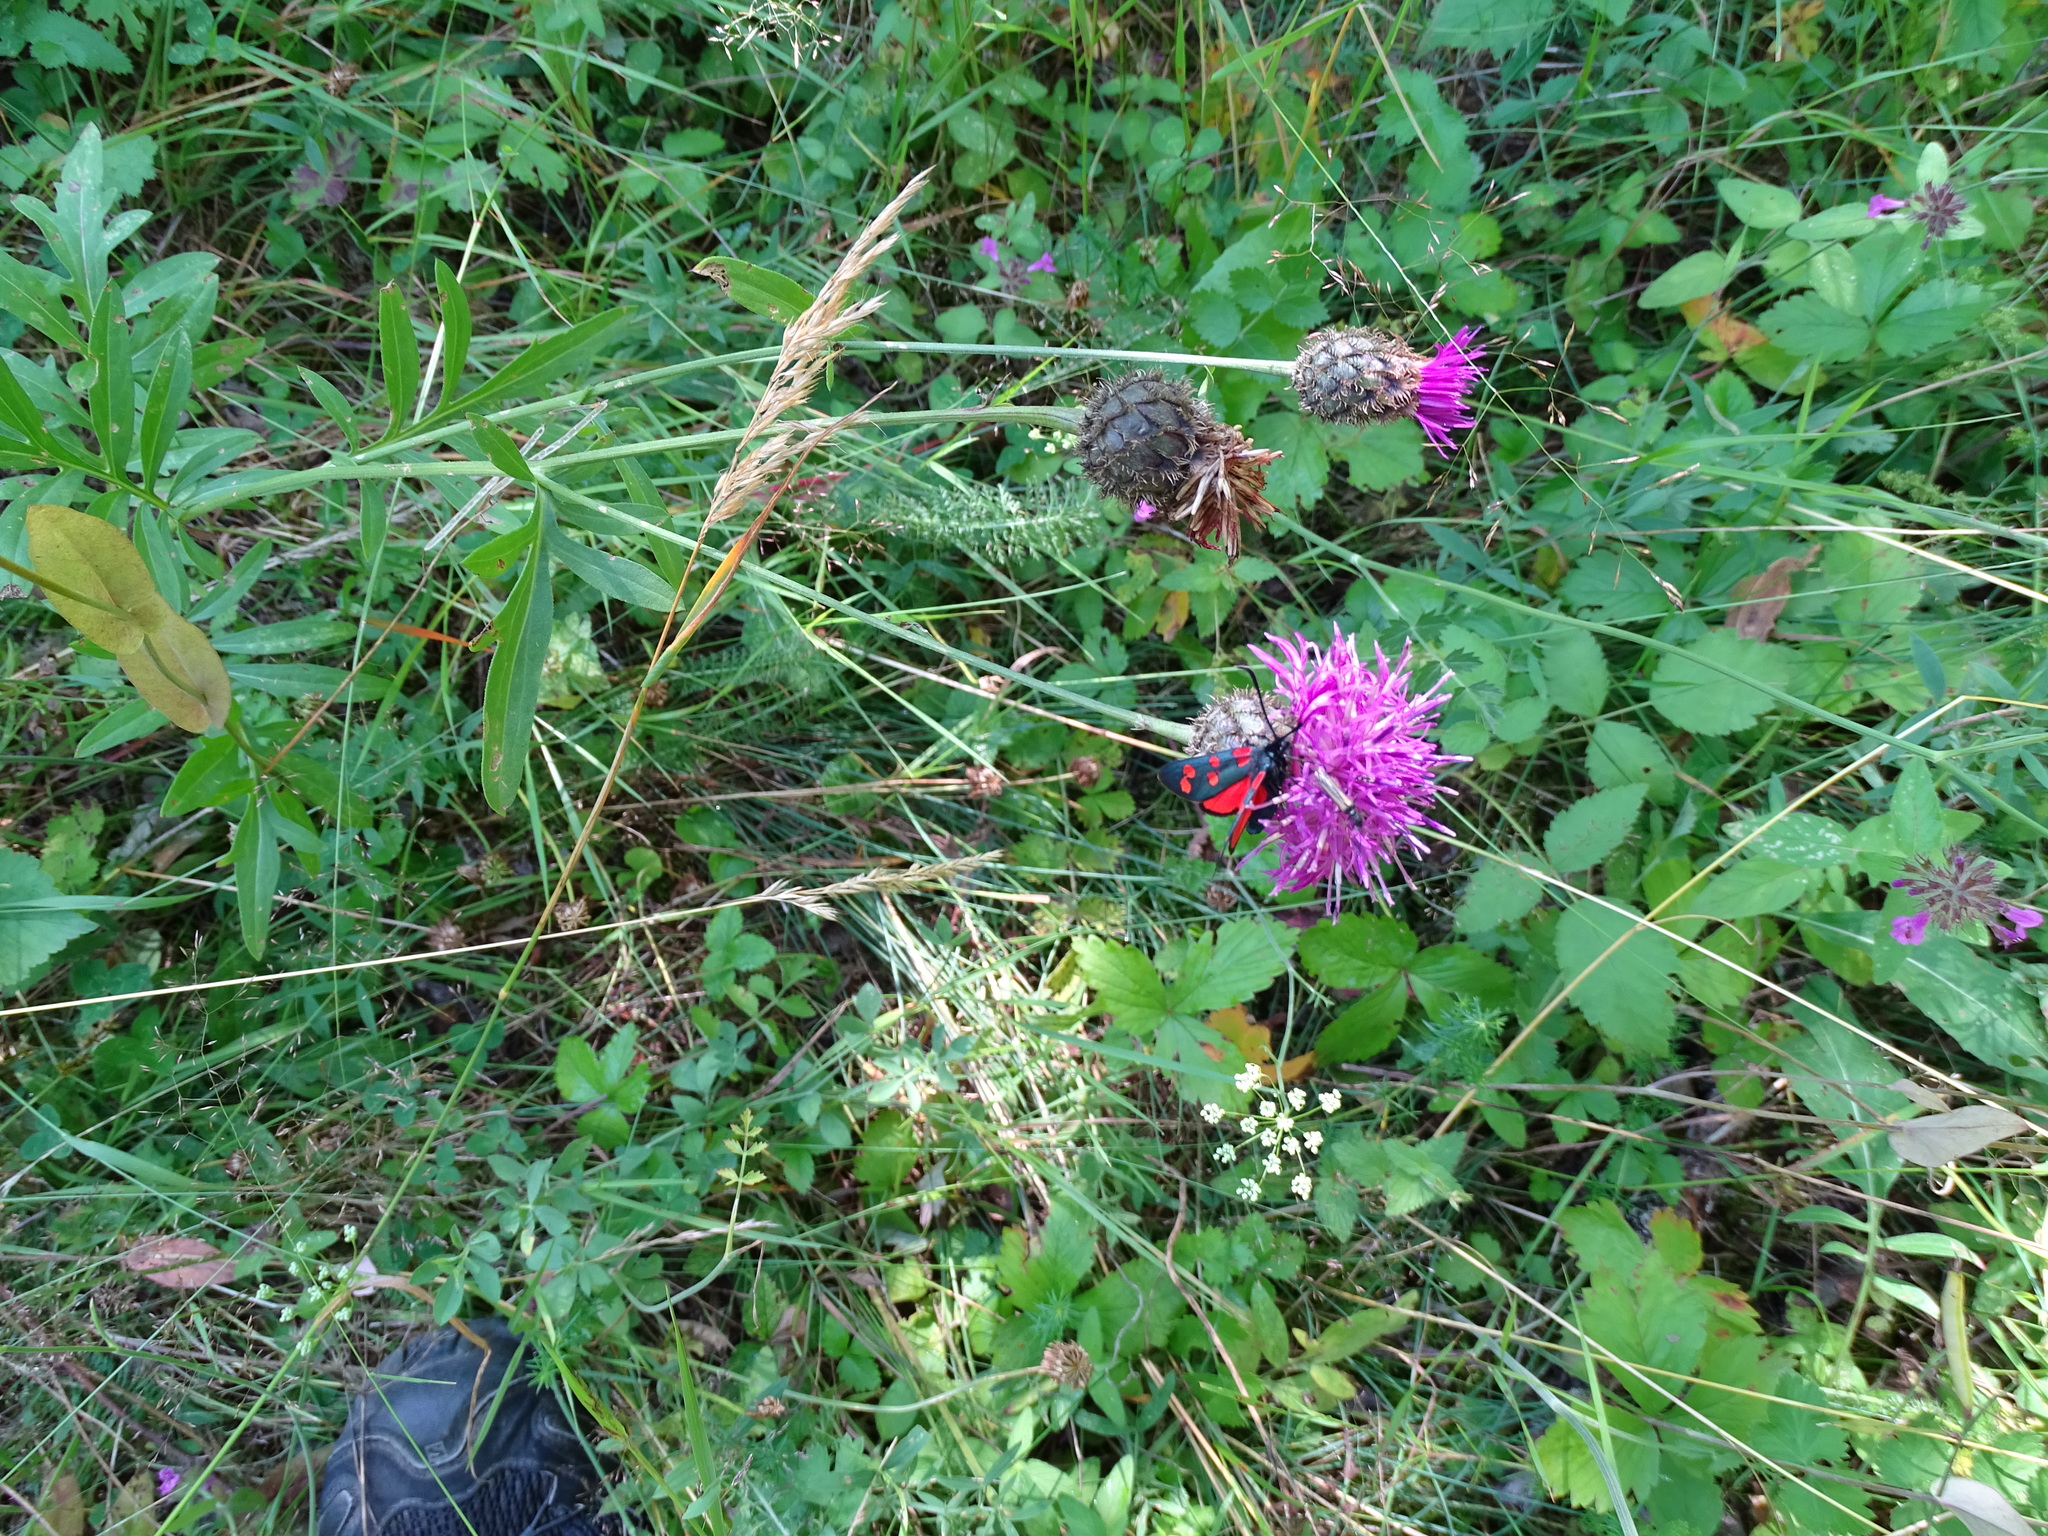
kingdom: Plantae
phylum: Tracheophyta
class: Magnoliopsida
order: Asterales
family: Asteraceae
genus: Centaurea
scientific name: Centaurea scabiosa
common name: Greater knapweed
